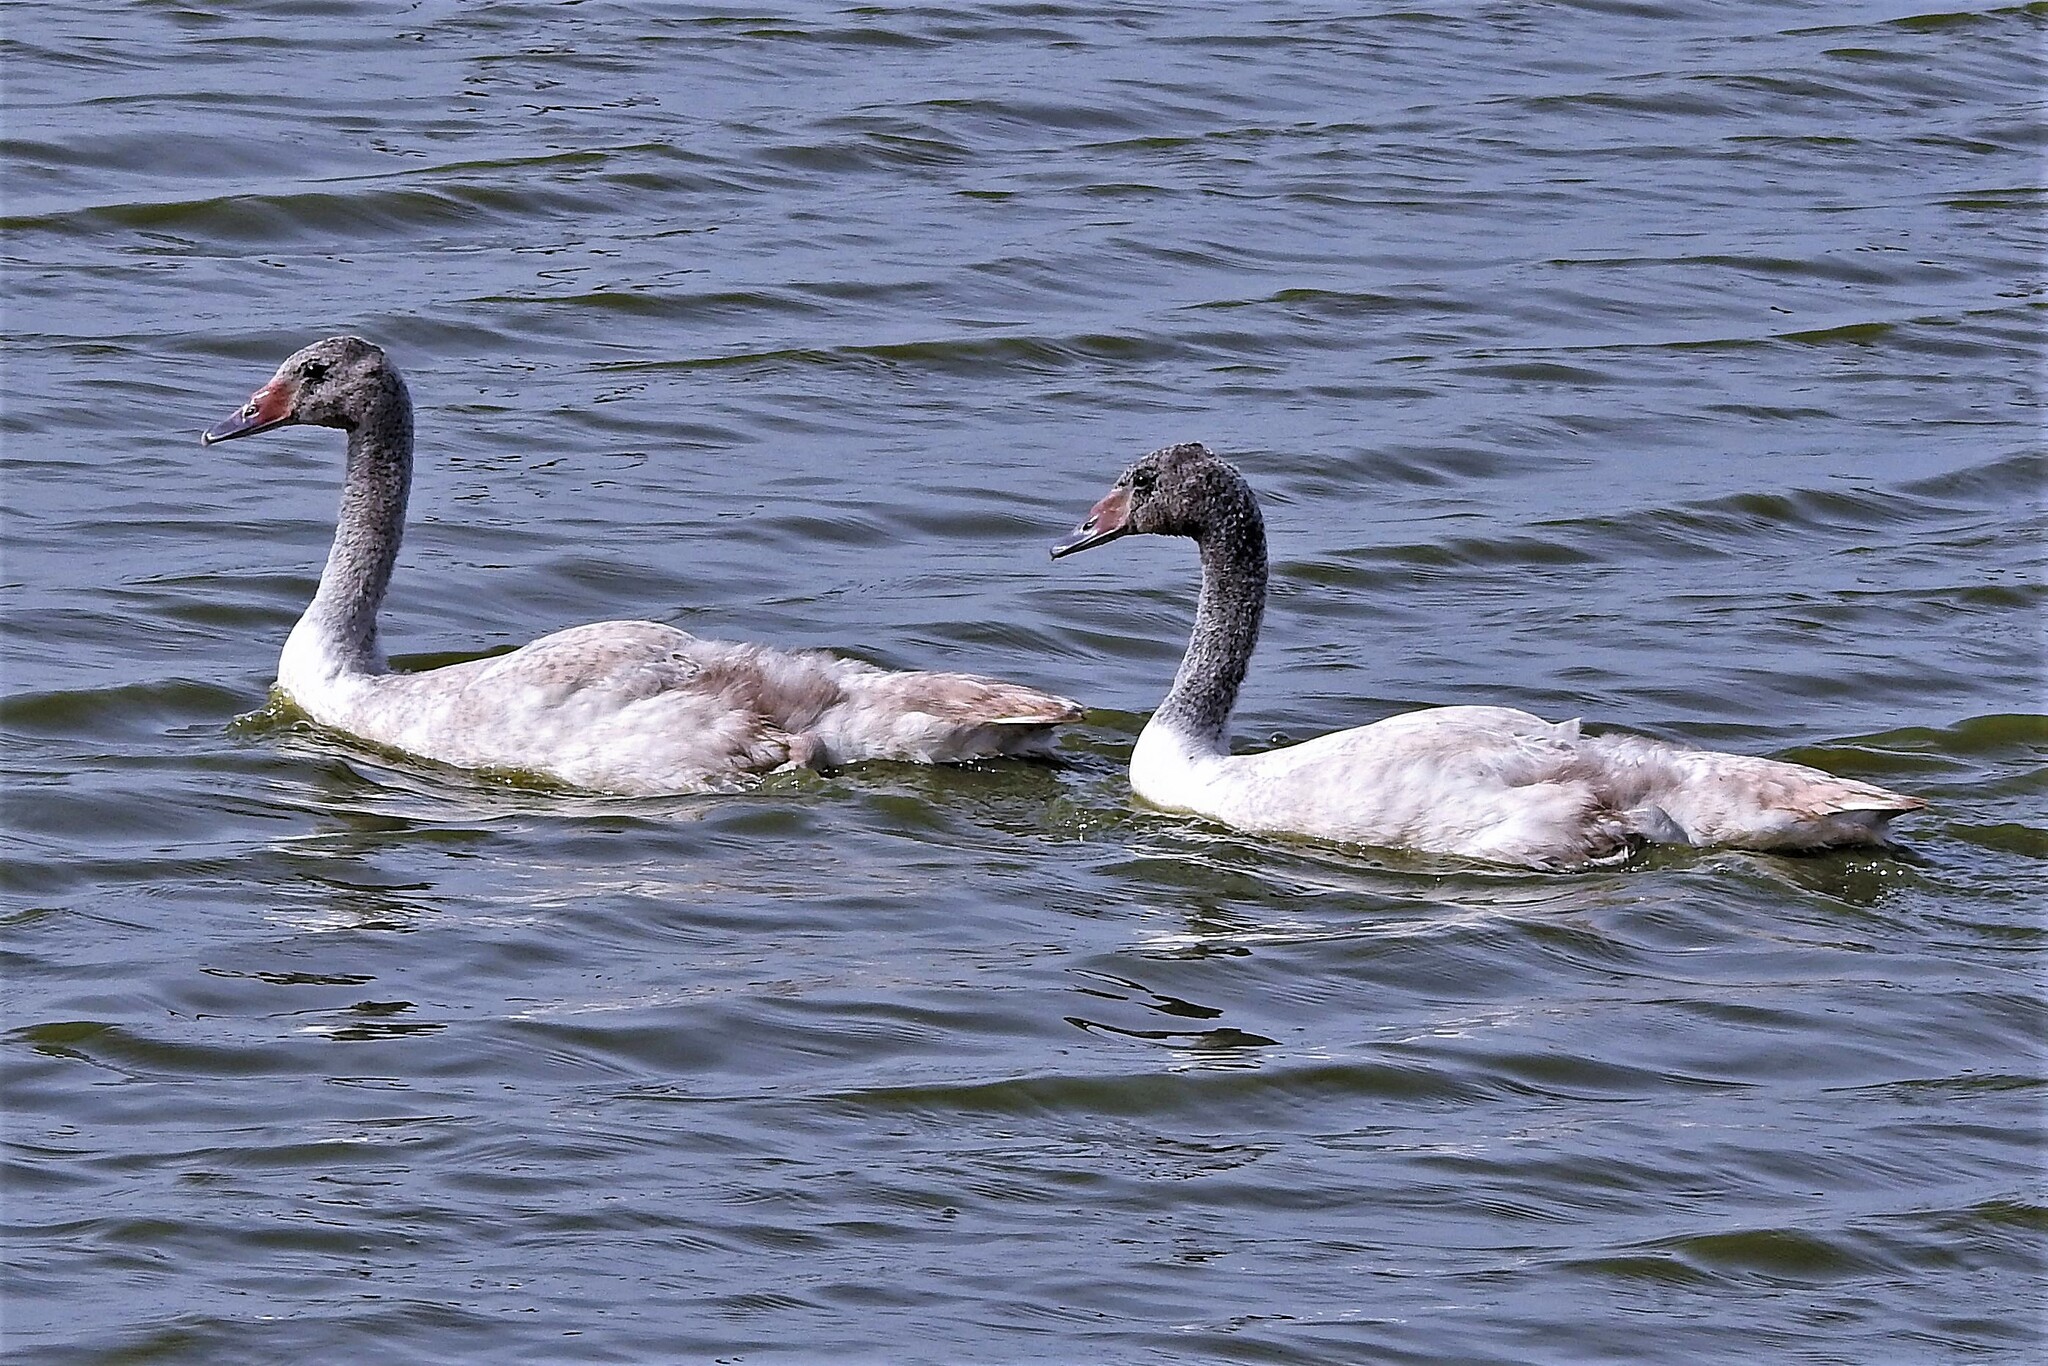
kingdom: Animalia
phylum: Chordata
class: Aves
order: Anseriformes
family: Anatidae
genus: Cygnus
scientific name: Cygnus melancoryphus
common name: Black-necked swan
